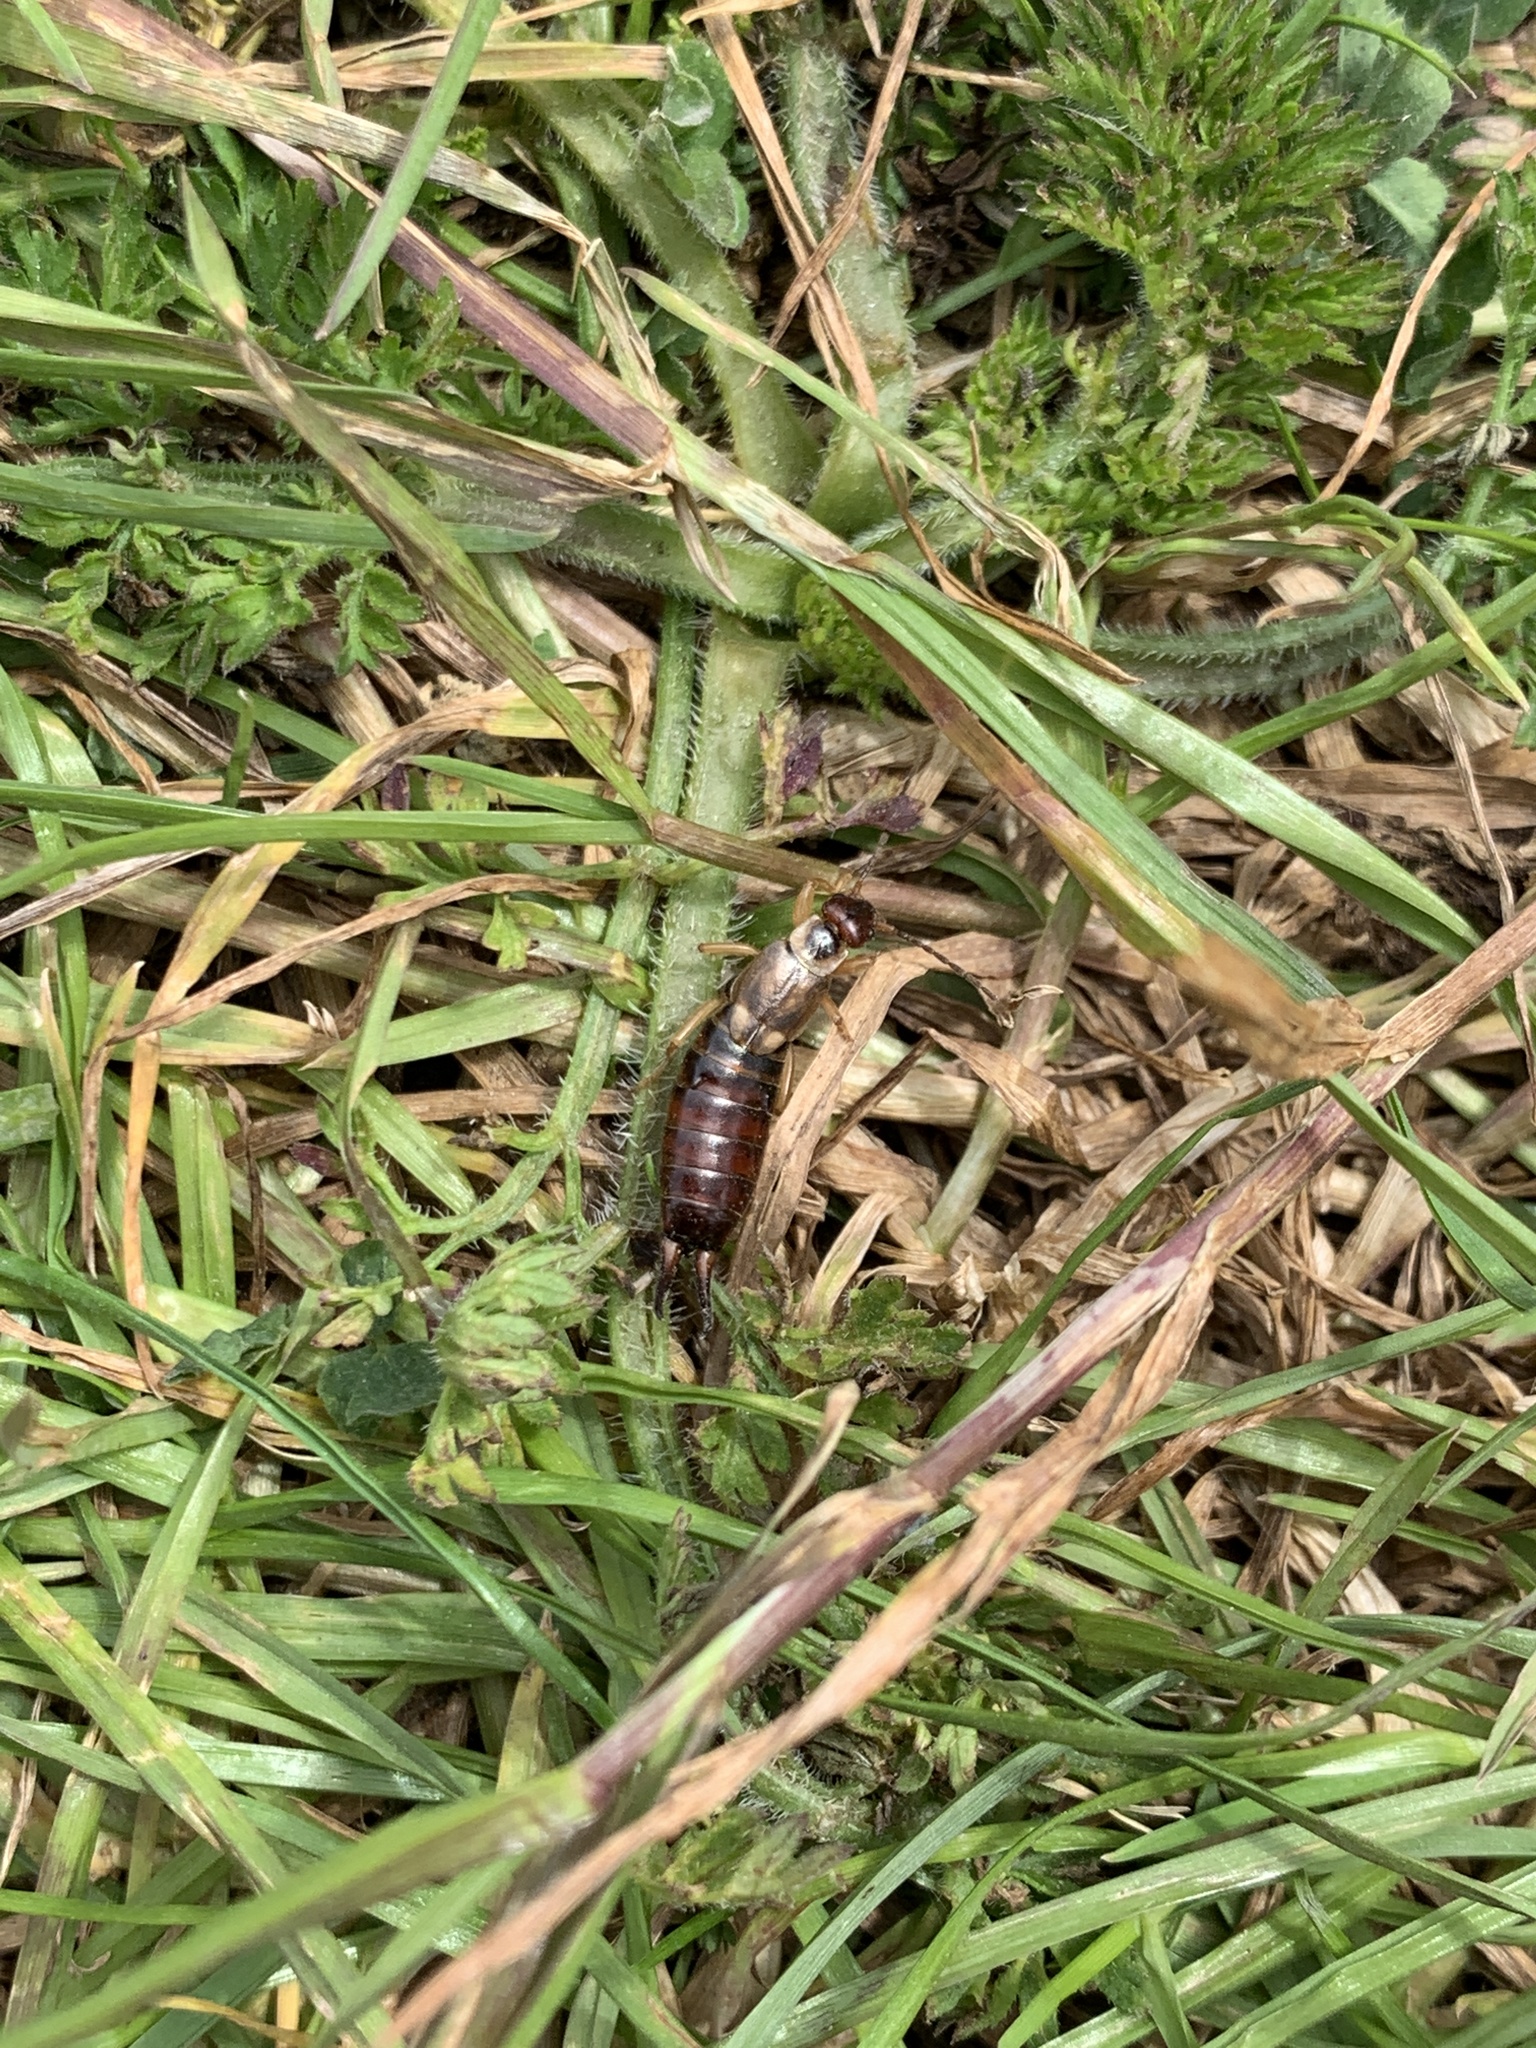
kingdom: Animalia
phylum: Arthropoda
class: Insecta
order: Dermaptera
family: Forficulidae
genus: Forficula
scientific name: Forficula
